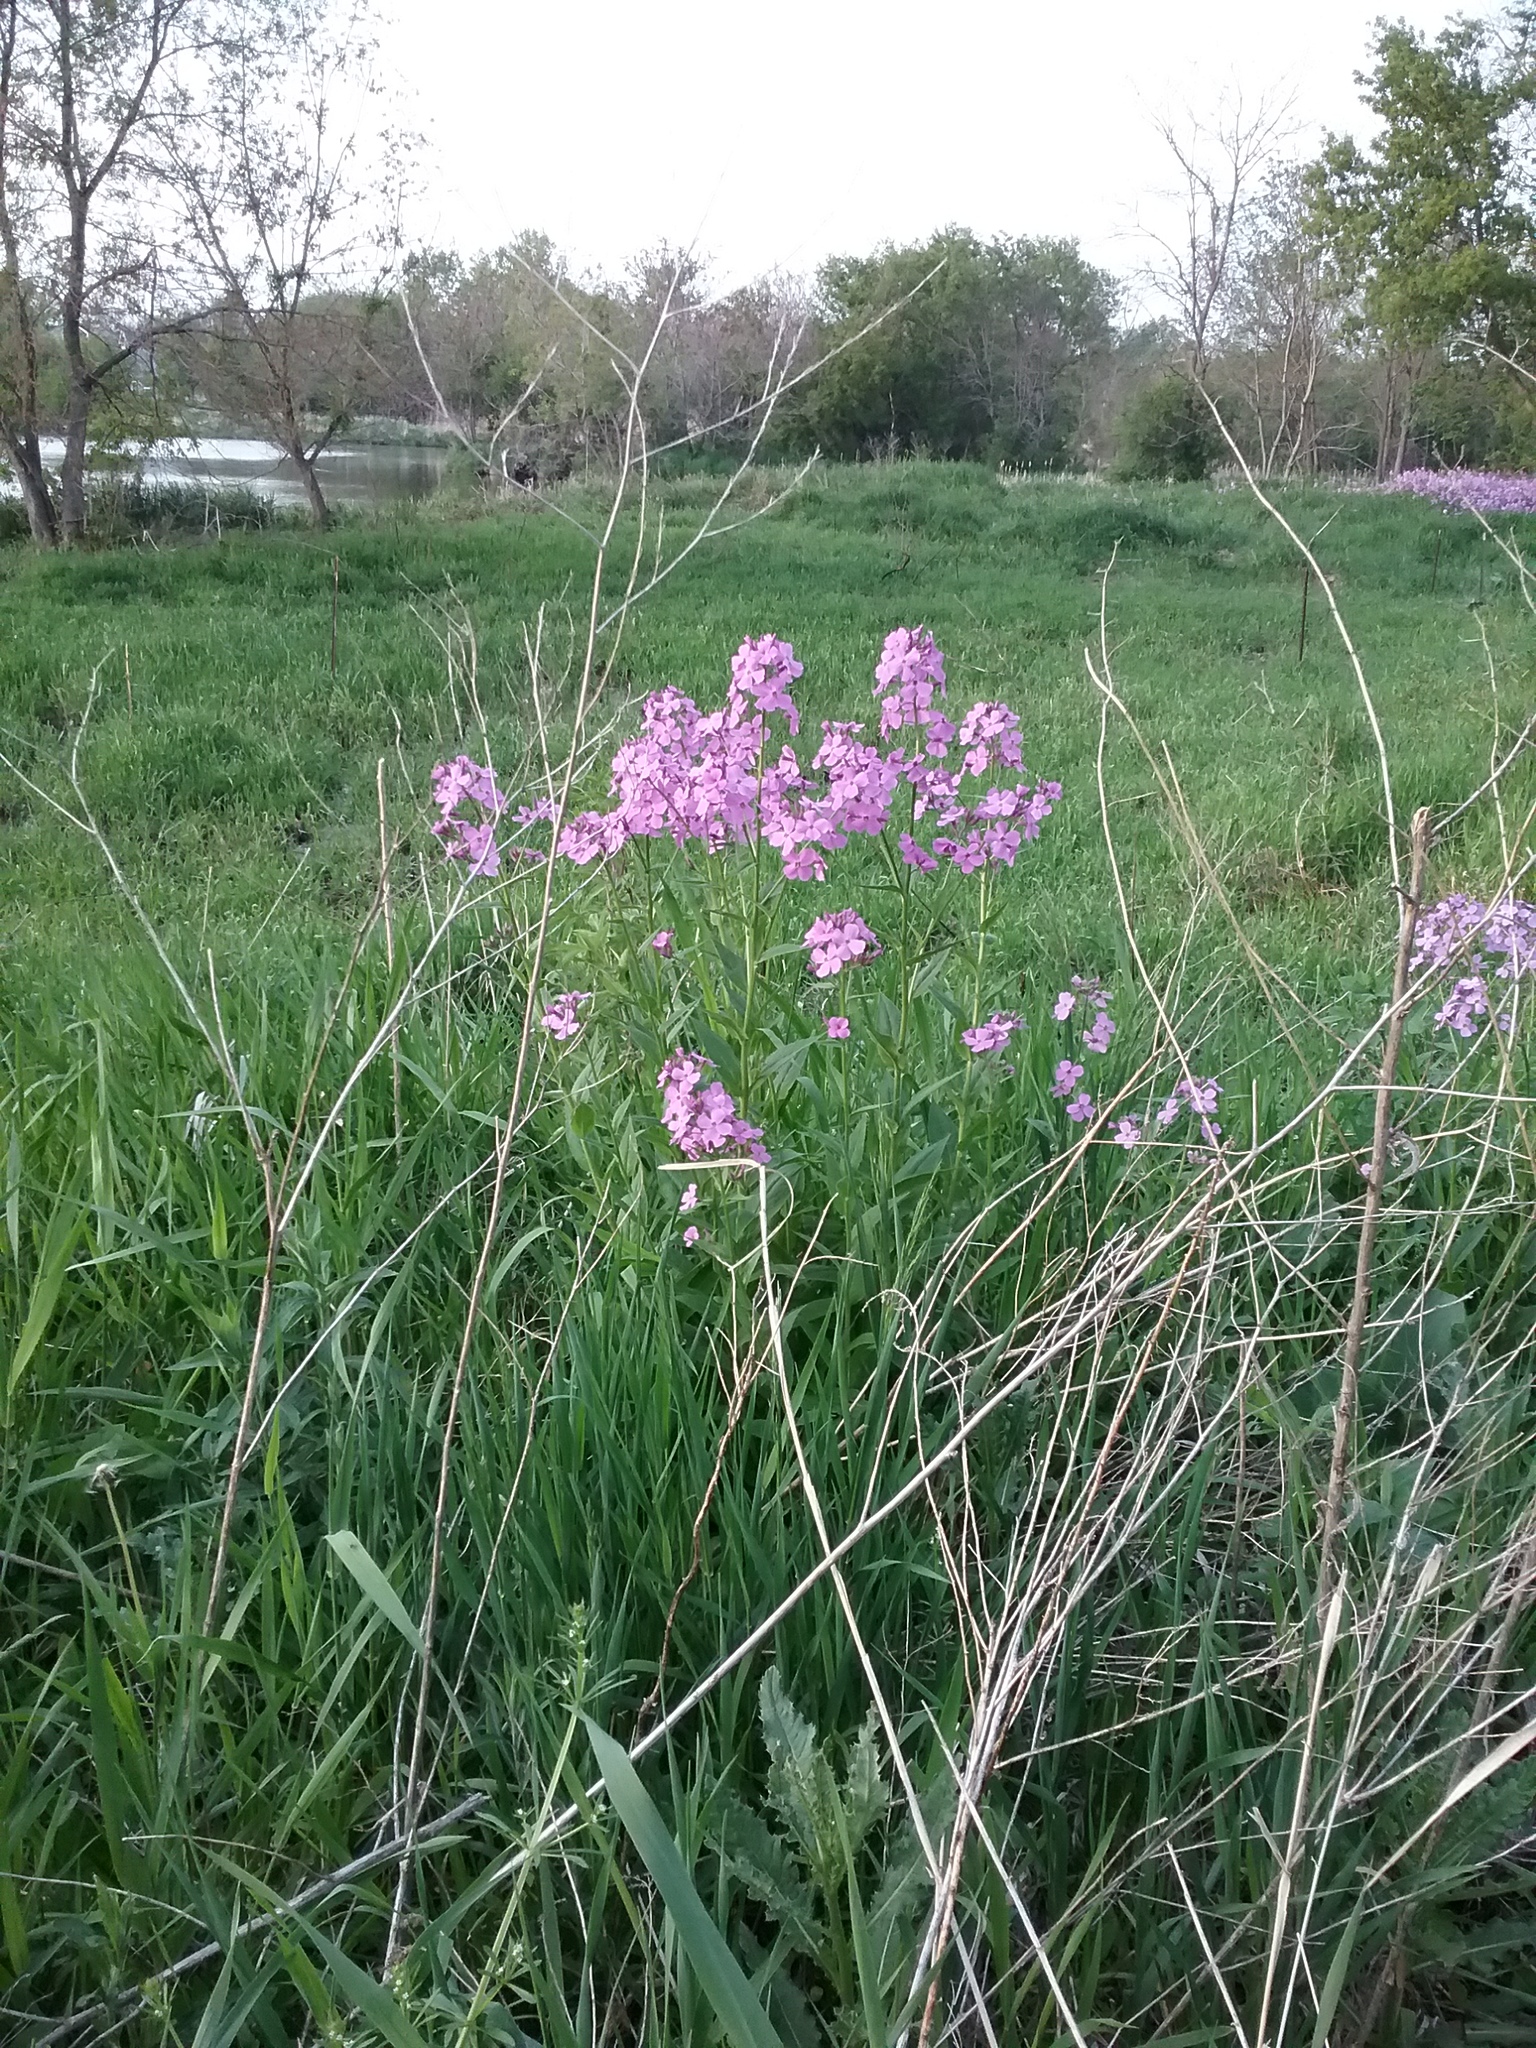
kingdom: Plantae
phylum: Tracheophyta
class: Magnoliopsida
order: Brassicales
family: Brassicaceae
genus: Hesperis
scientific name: Hesperis matronalis
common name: Dame's-violet
